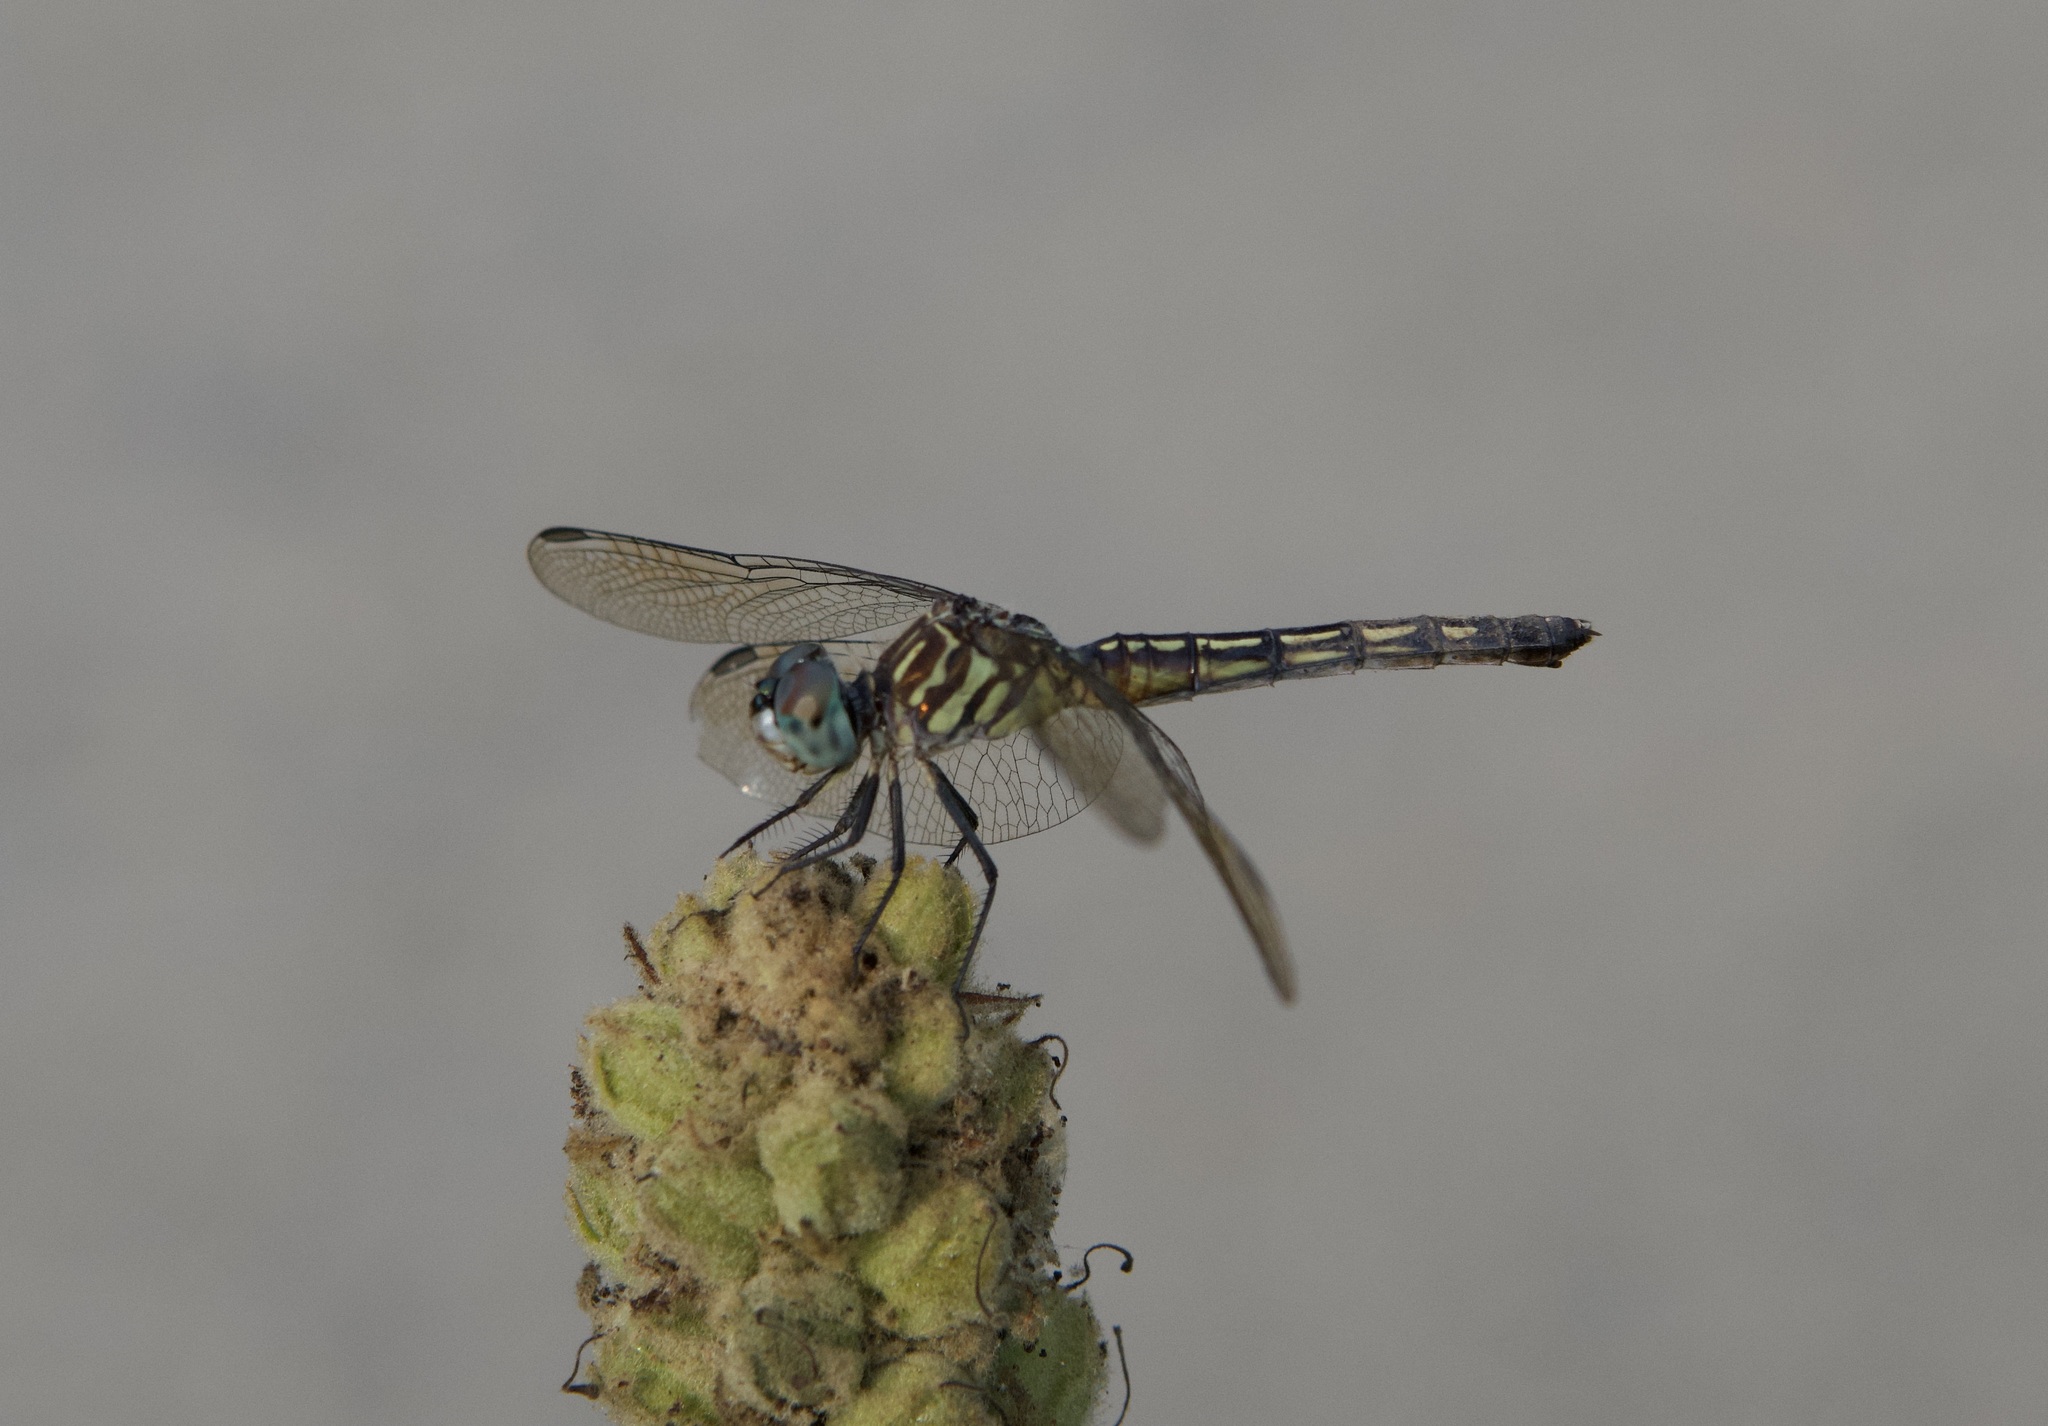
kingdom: Animalia
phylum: Arthropoda
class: Insecta
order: Odonata
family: Libellulidae
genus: Pachydiplax
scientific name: Pachydiplax longipennis
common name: Blue dasher
